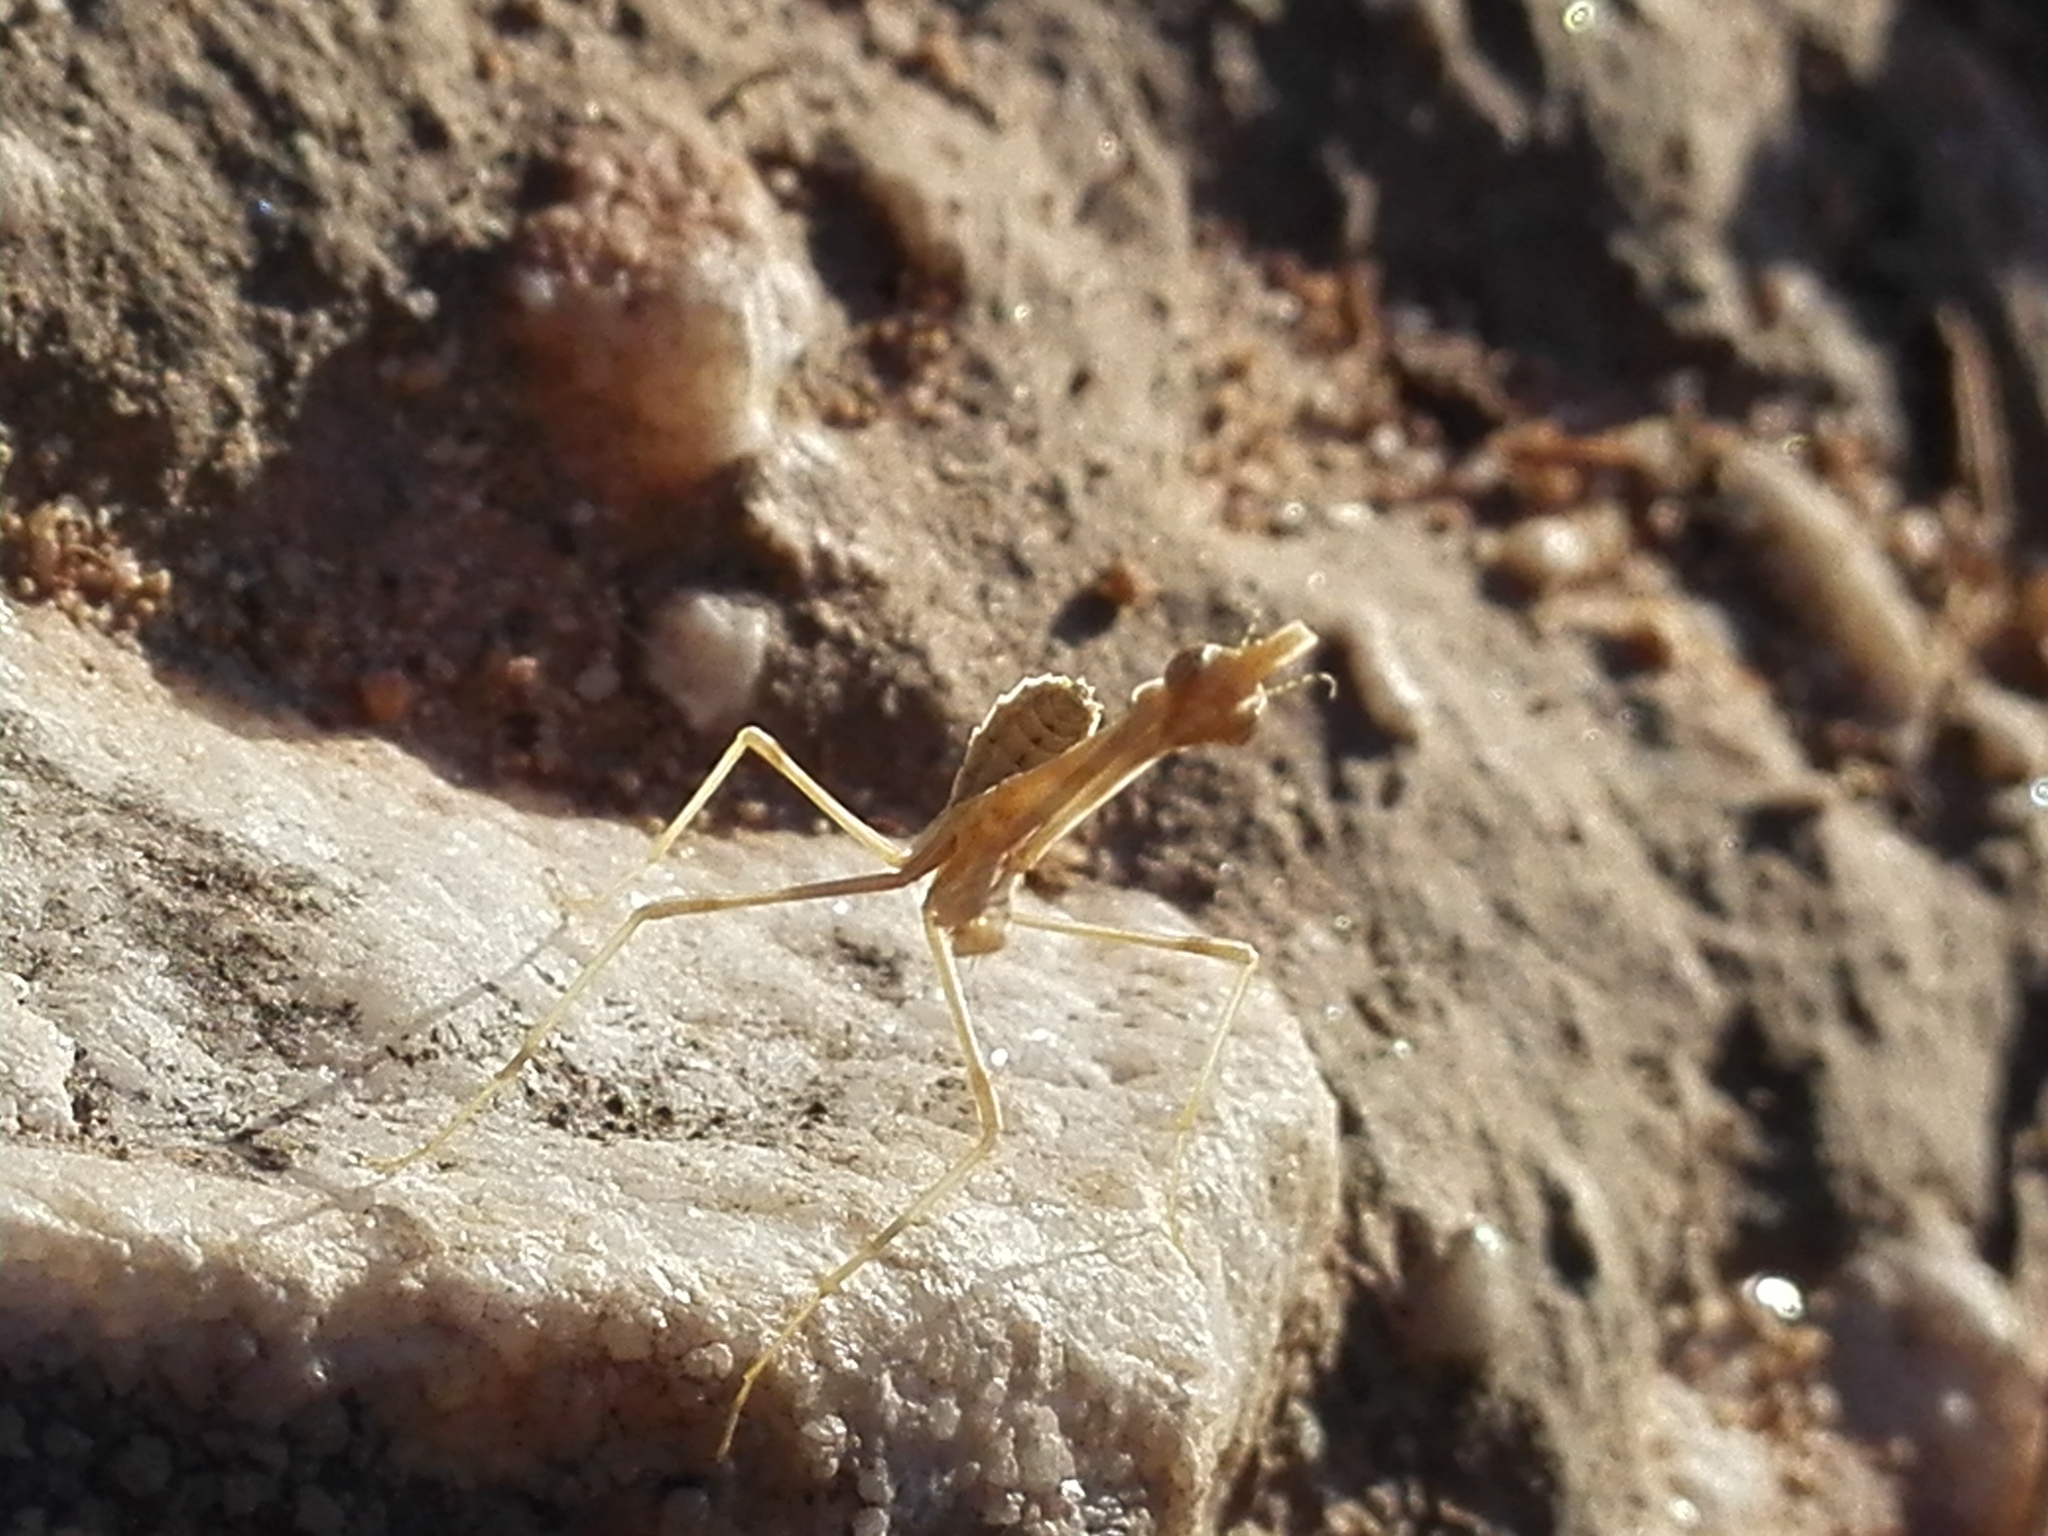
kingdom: Animalia
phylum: Arthropoda
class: Insecta
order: Mantodea
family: Empusidae
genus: Empusa
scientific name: Empusa pennata
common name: Conehead mantis
